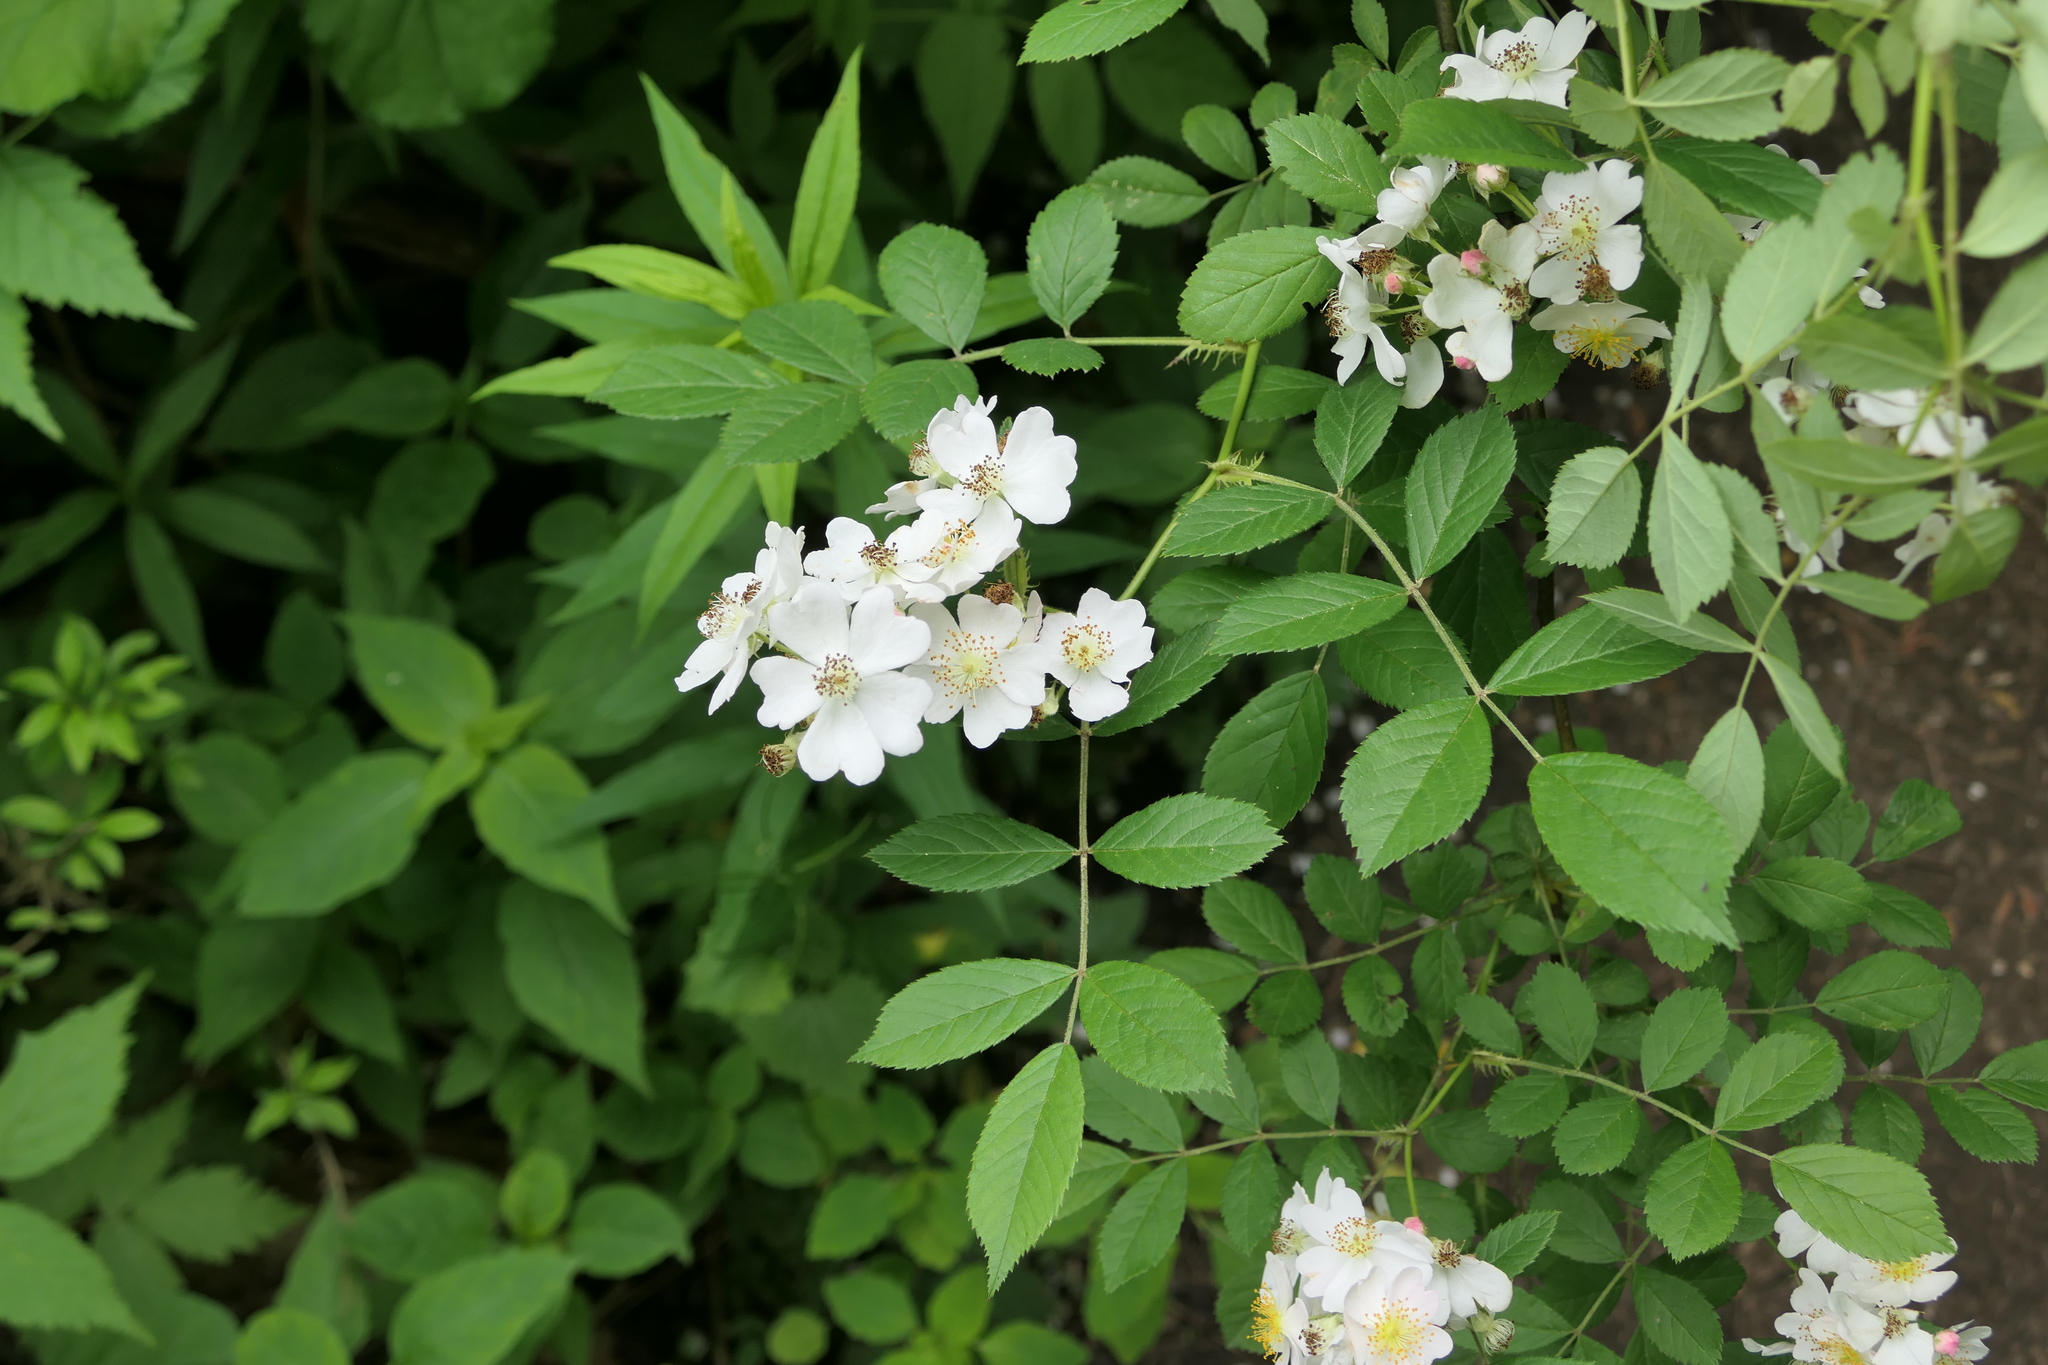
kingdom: Plantae
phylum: Tracheophyta
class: Magnoliopsida
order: Rosales
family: Rosaceae
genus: Rosa
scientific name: Rosa multiflora
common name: Multiflora rose
